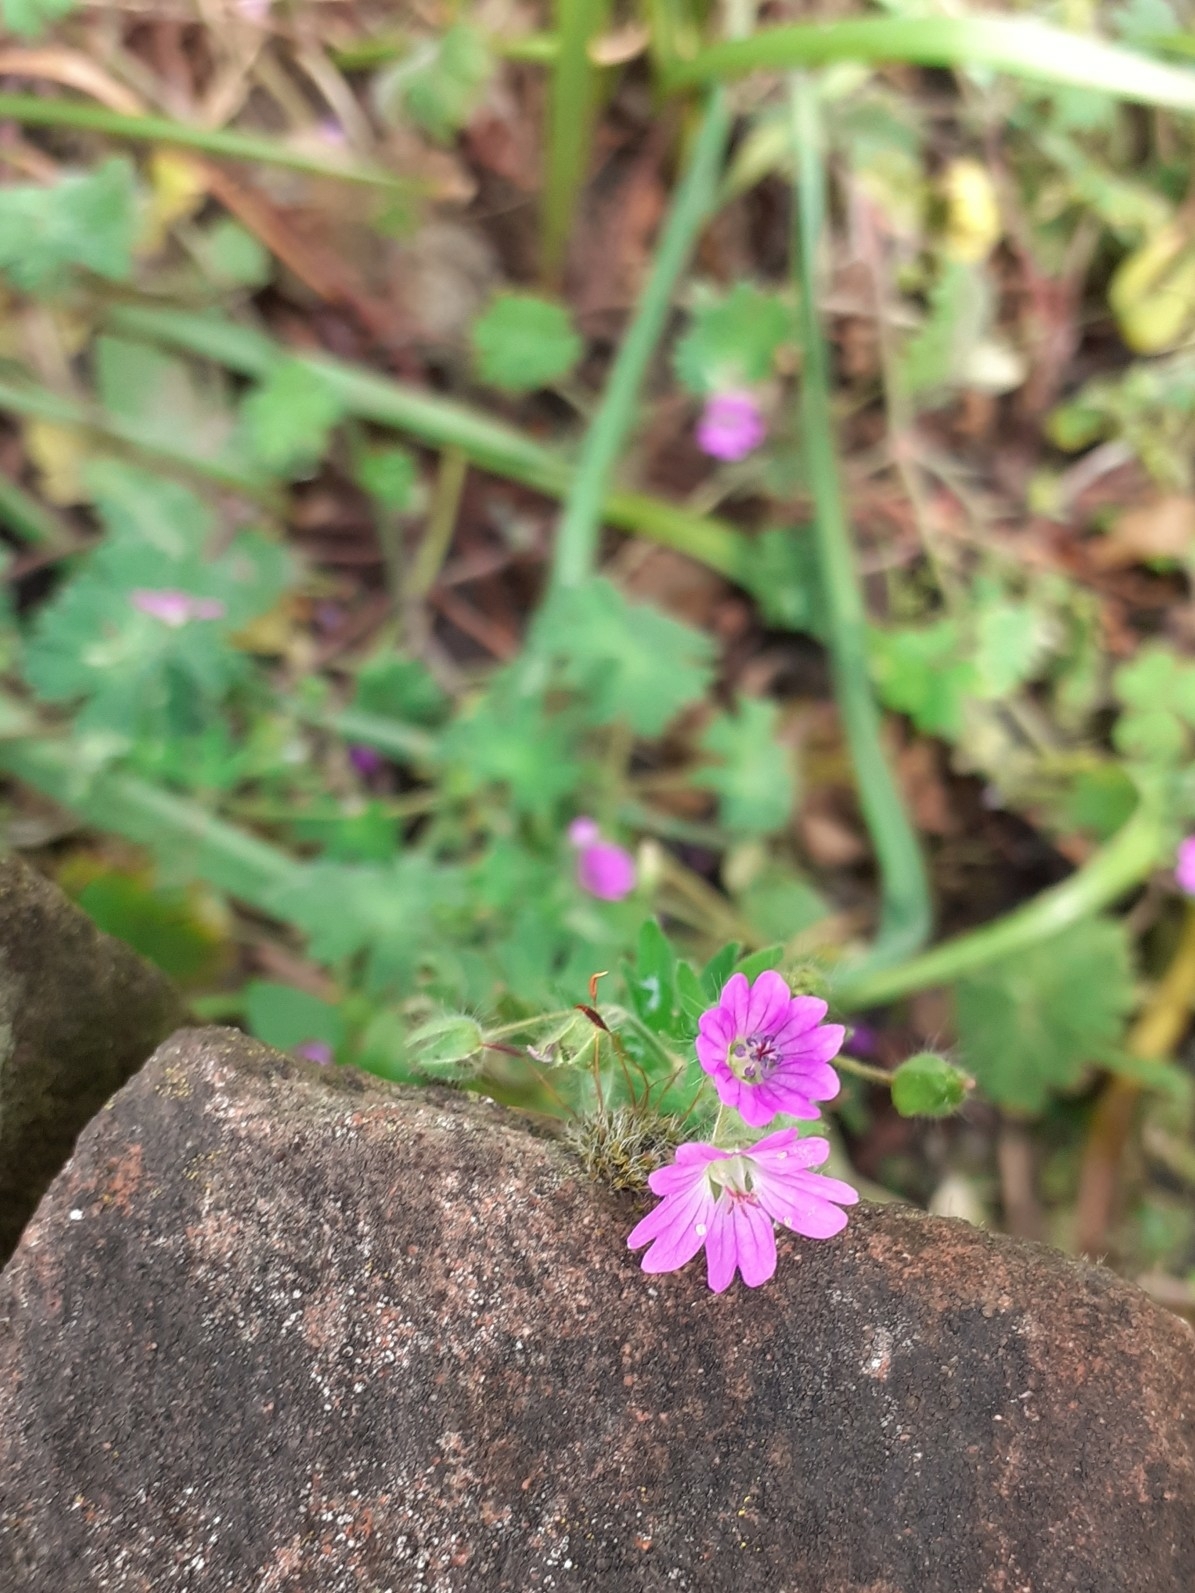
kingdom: Plantae
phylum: Tracheophyta
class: Magnoliopsida
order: Geraniales
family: Geraniaceae
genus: Geranium
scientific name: Geranium molle
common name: Dove's-foot crane's-bill
